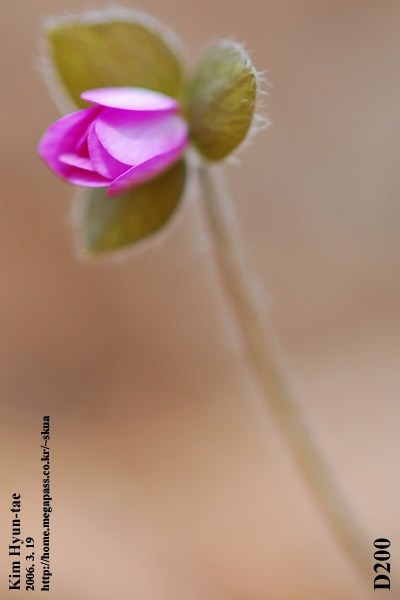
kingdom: Plantae
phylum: Tracheophyta
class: Magnoliopsida
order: Ranunculales
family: Ranunculaceae
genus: Hepatica
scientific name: Hepatica asiatica
